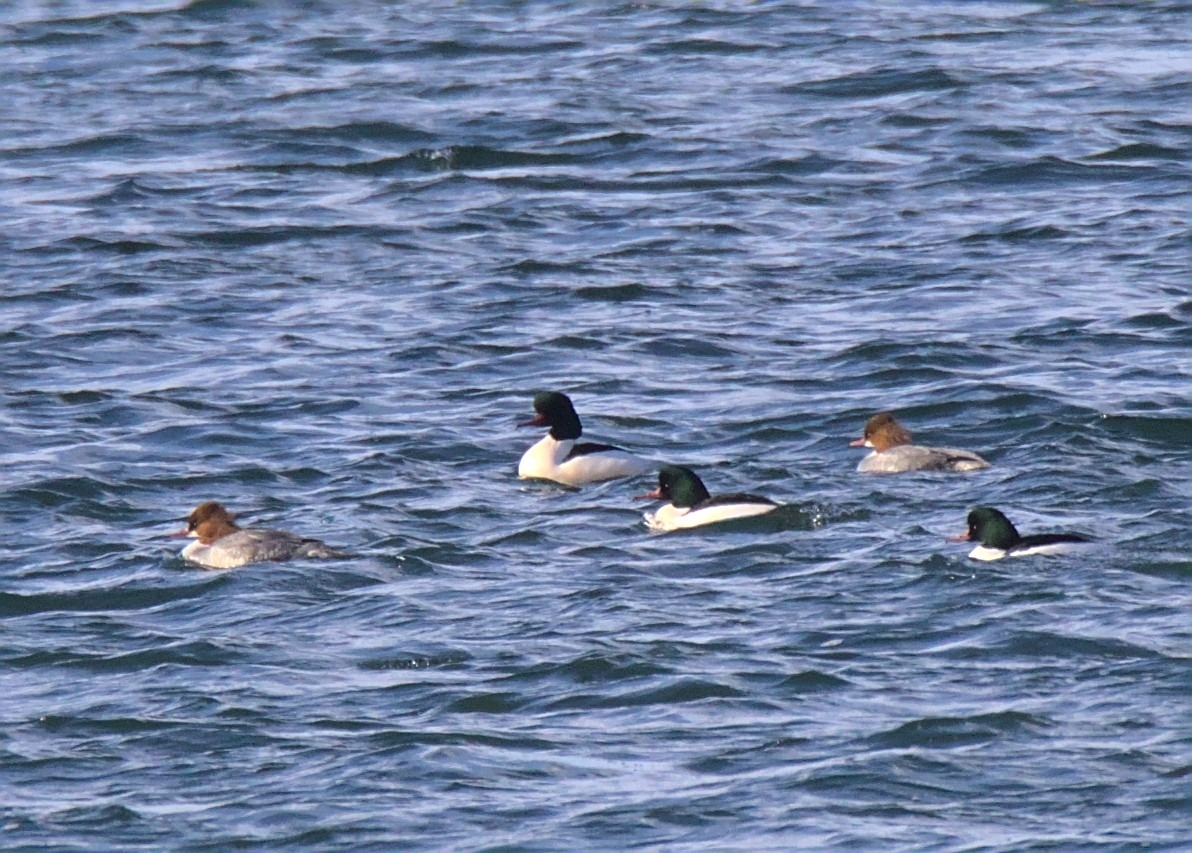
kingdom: Animalia
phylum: Chordata
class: Aves
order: Anseriformes
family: Anatidae
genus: Mergus
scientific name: Mergus merganser
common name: Common merganser
